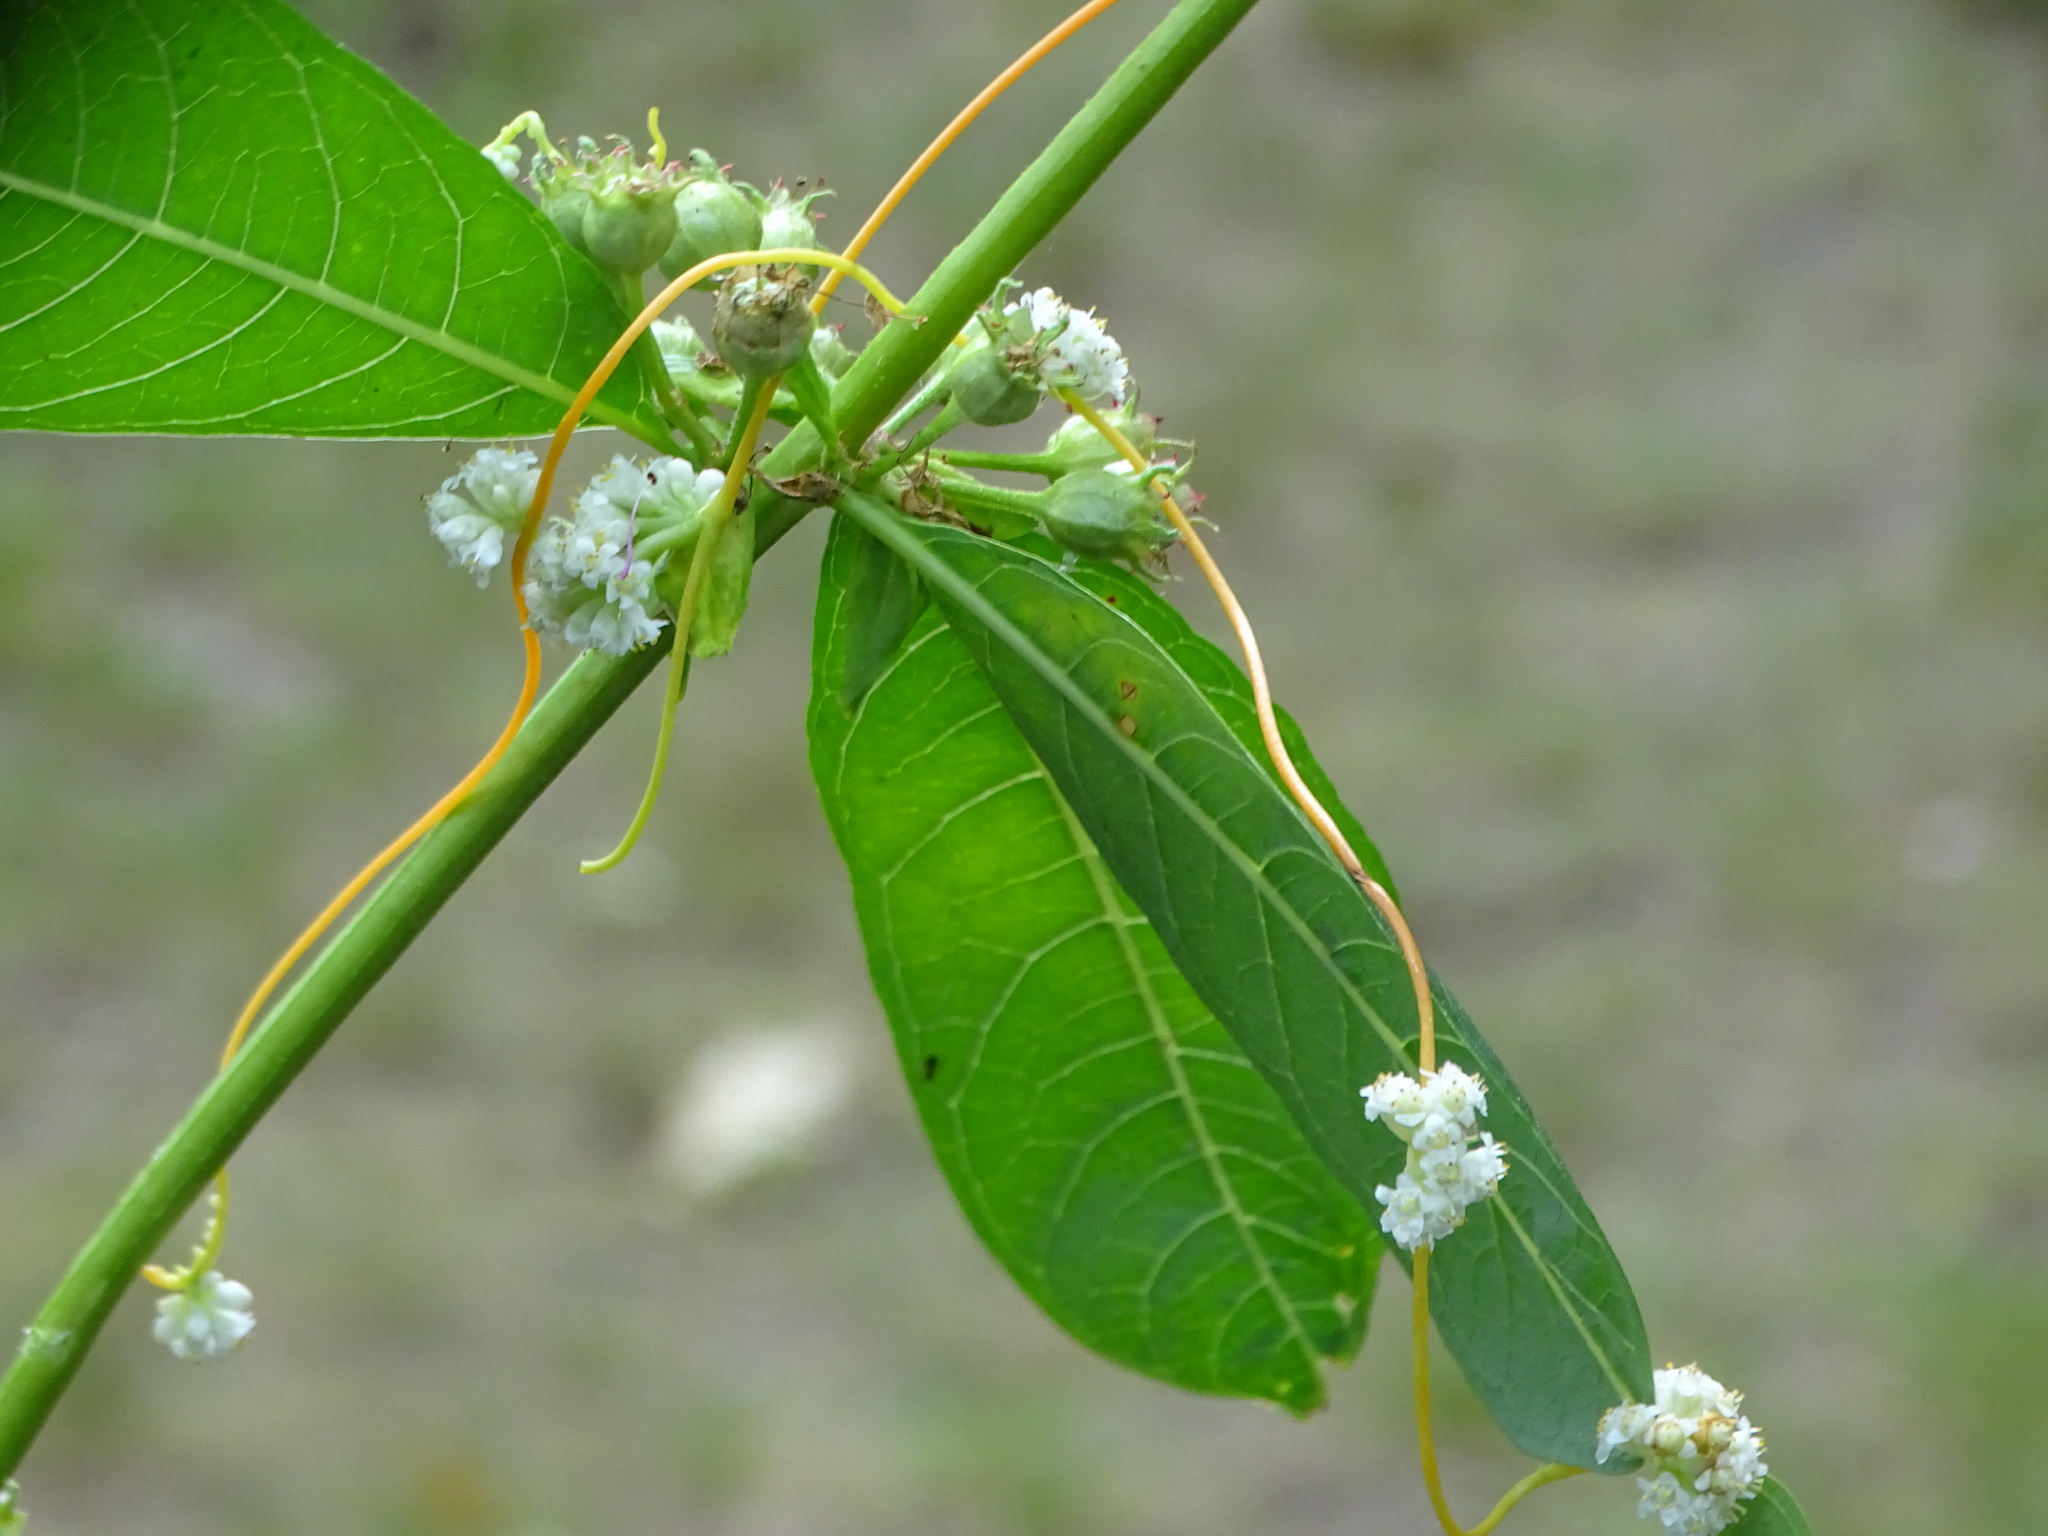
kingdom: Plantae
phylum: Tracheophyta
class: Magnoliopsida
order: Solanales
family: Convolvulaceae
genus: Cuscuta
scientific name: Cuscuta gronovii
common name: Common dodder
